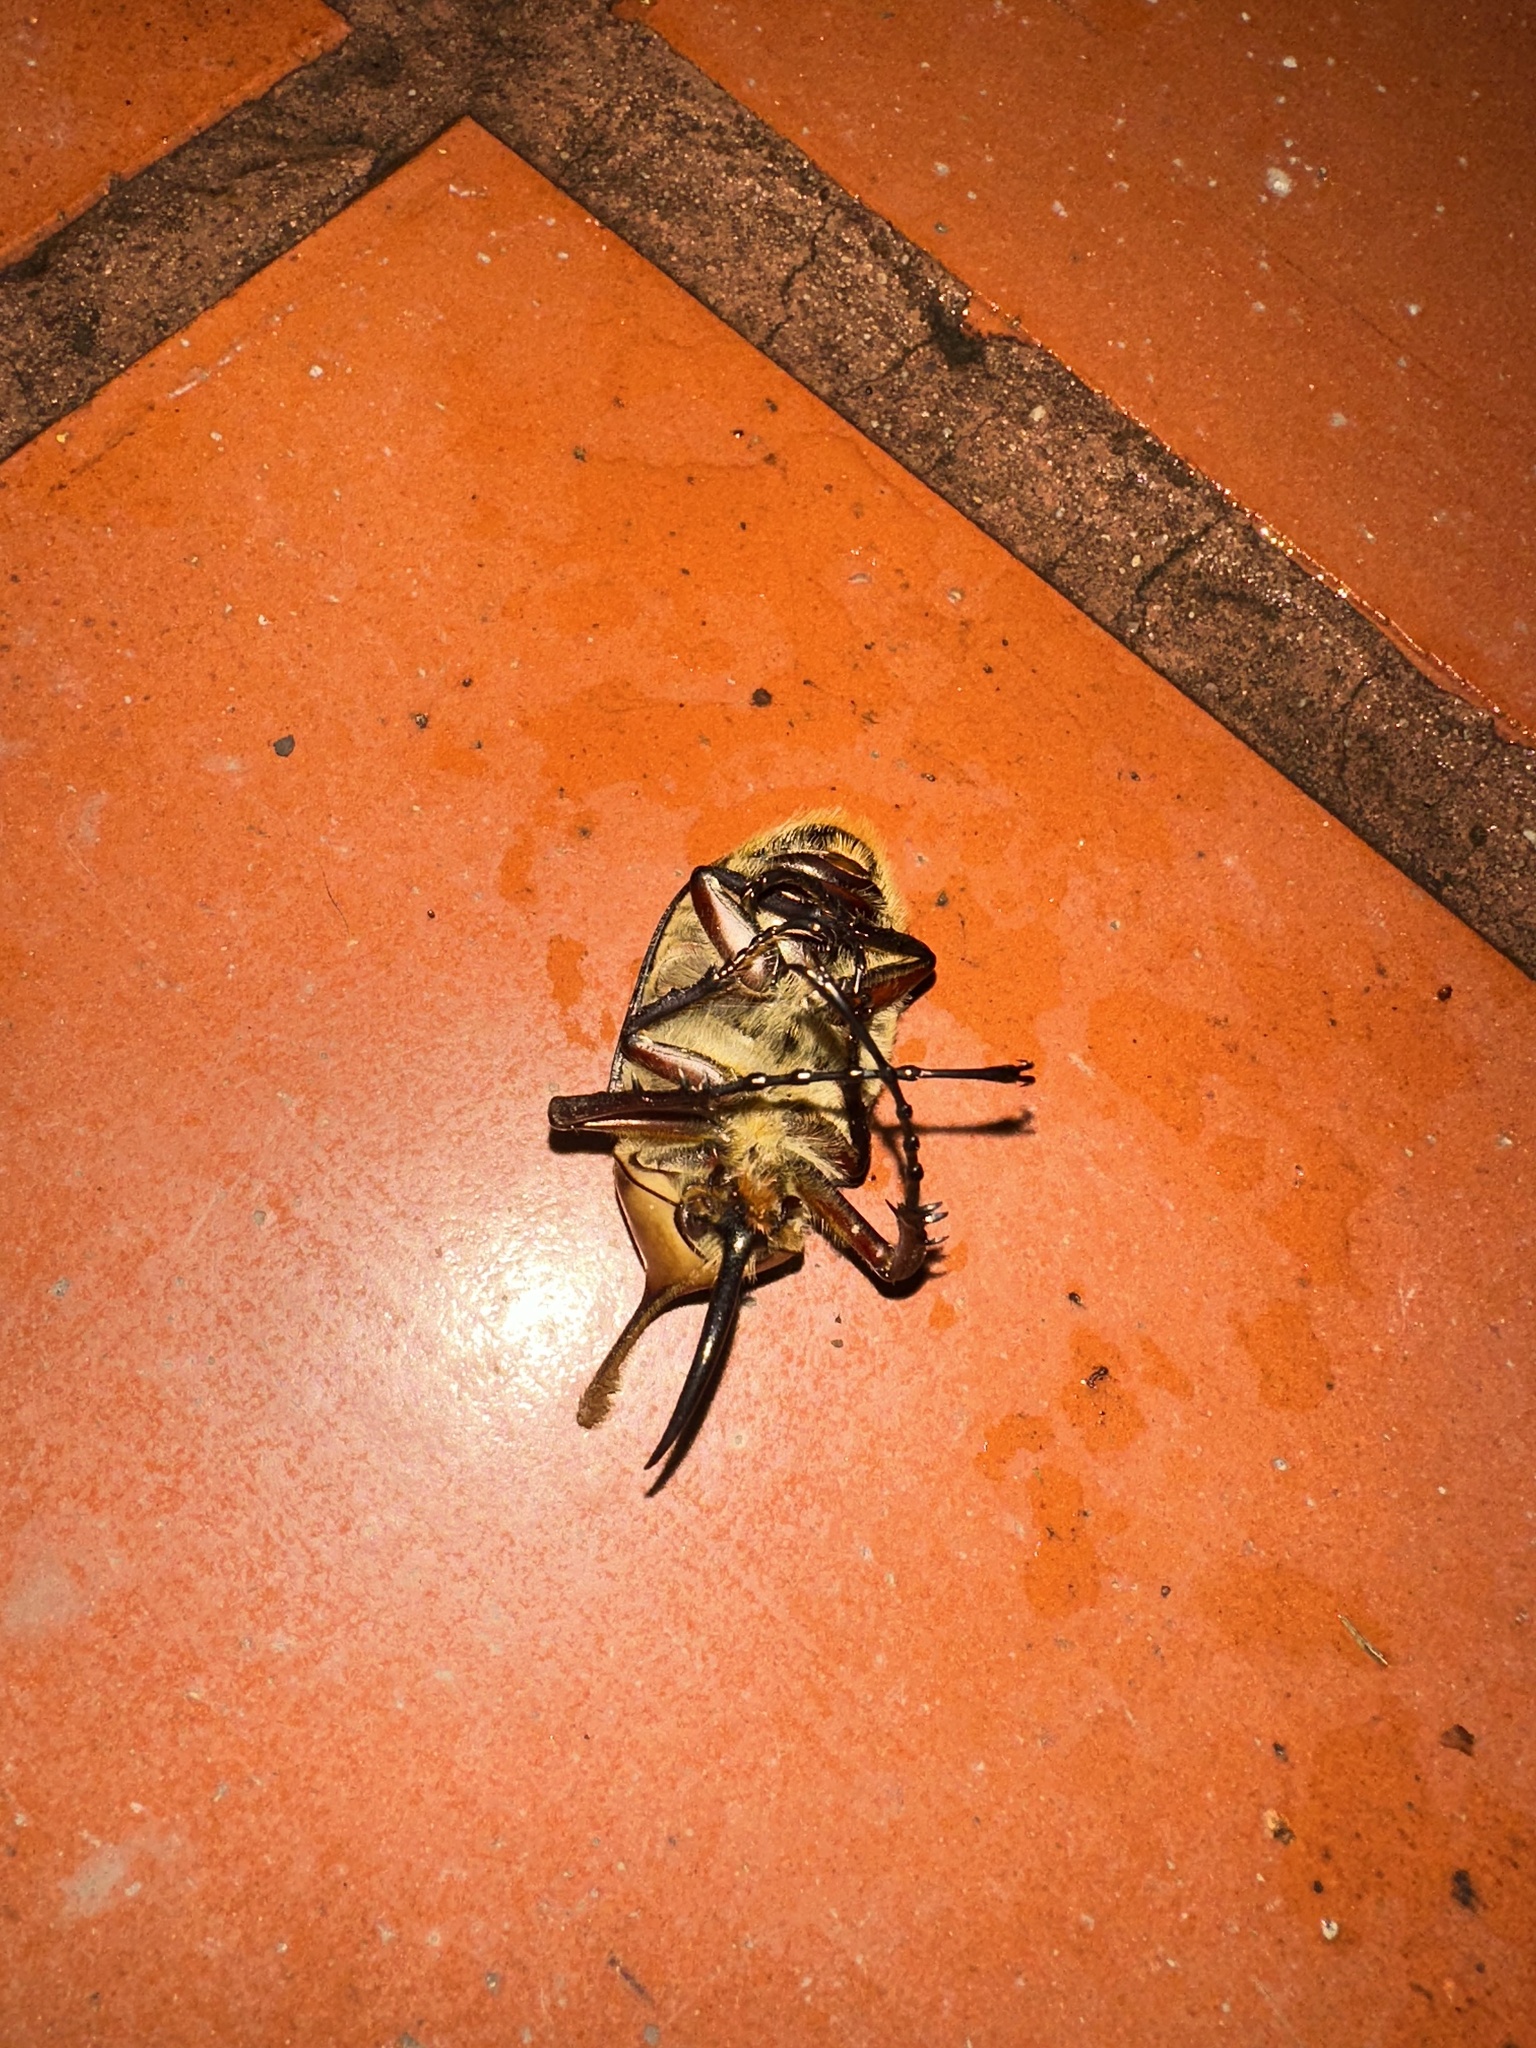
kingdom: Animalia
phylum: Arthropoda
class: Insecta
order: Coleoptera
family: Scarabaeidae
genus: Golofa
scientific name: Golofa eacus
